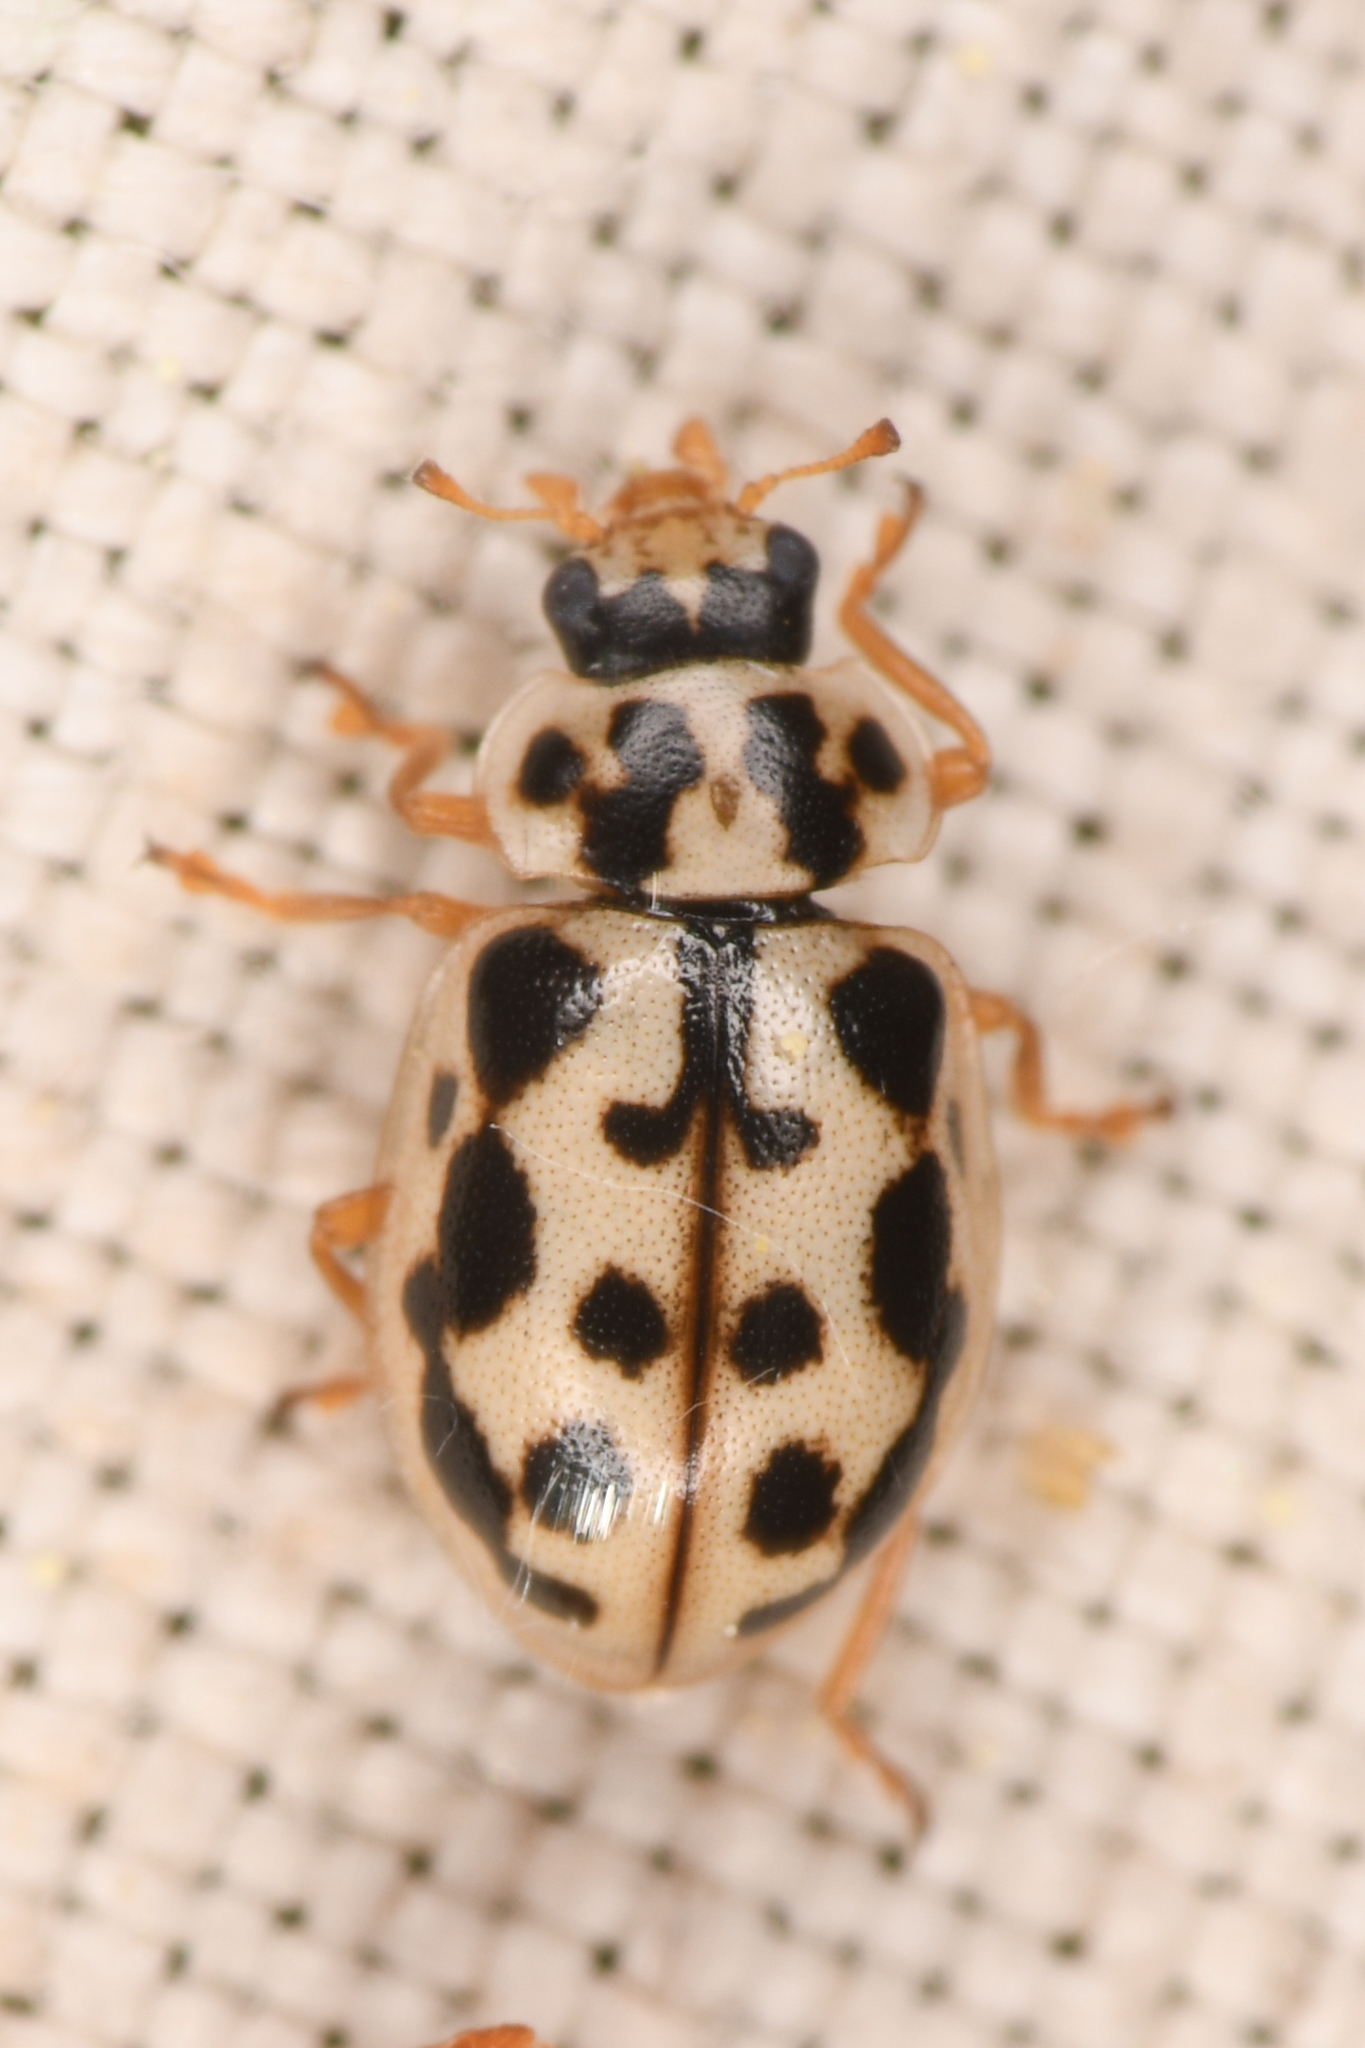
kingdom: Animalia
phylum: Arthropoda
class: Insecta
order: Coleoptera
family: Coccinellidae
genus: Anisosticta
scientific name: Anisosticta bitriangularis
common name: Marsh lady beetle
